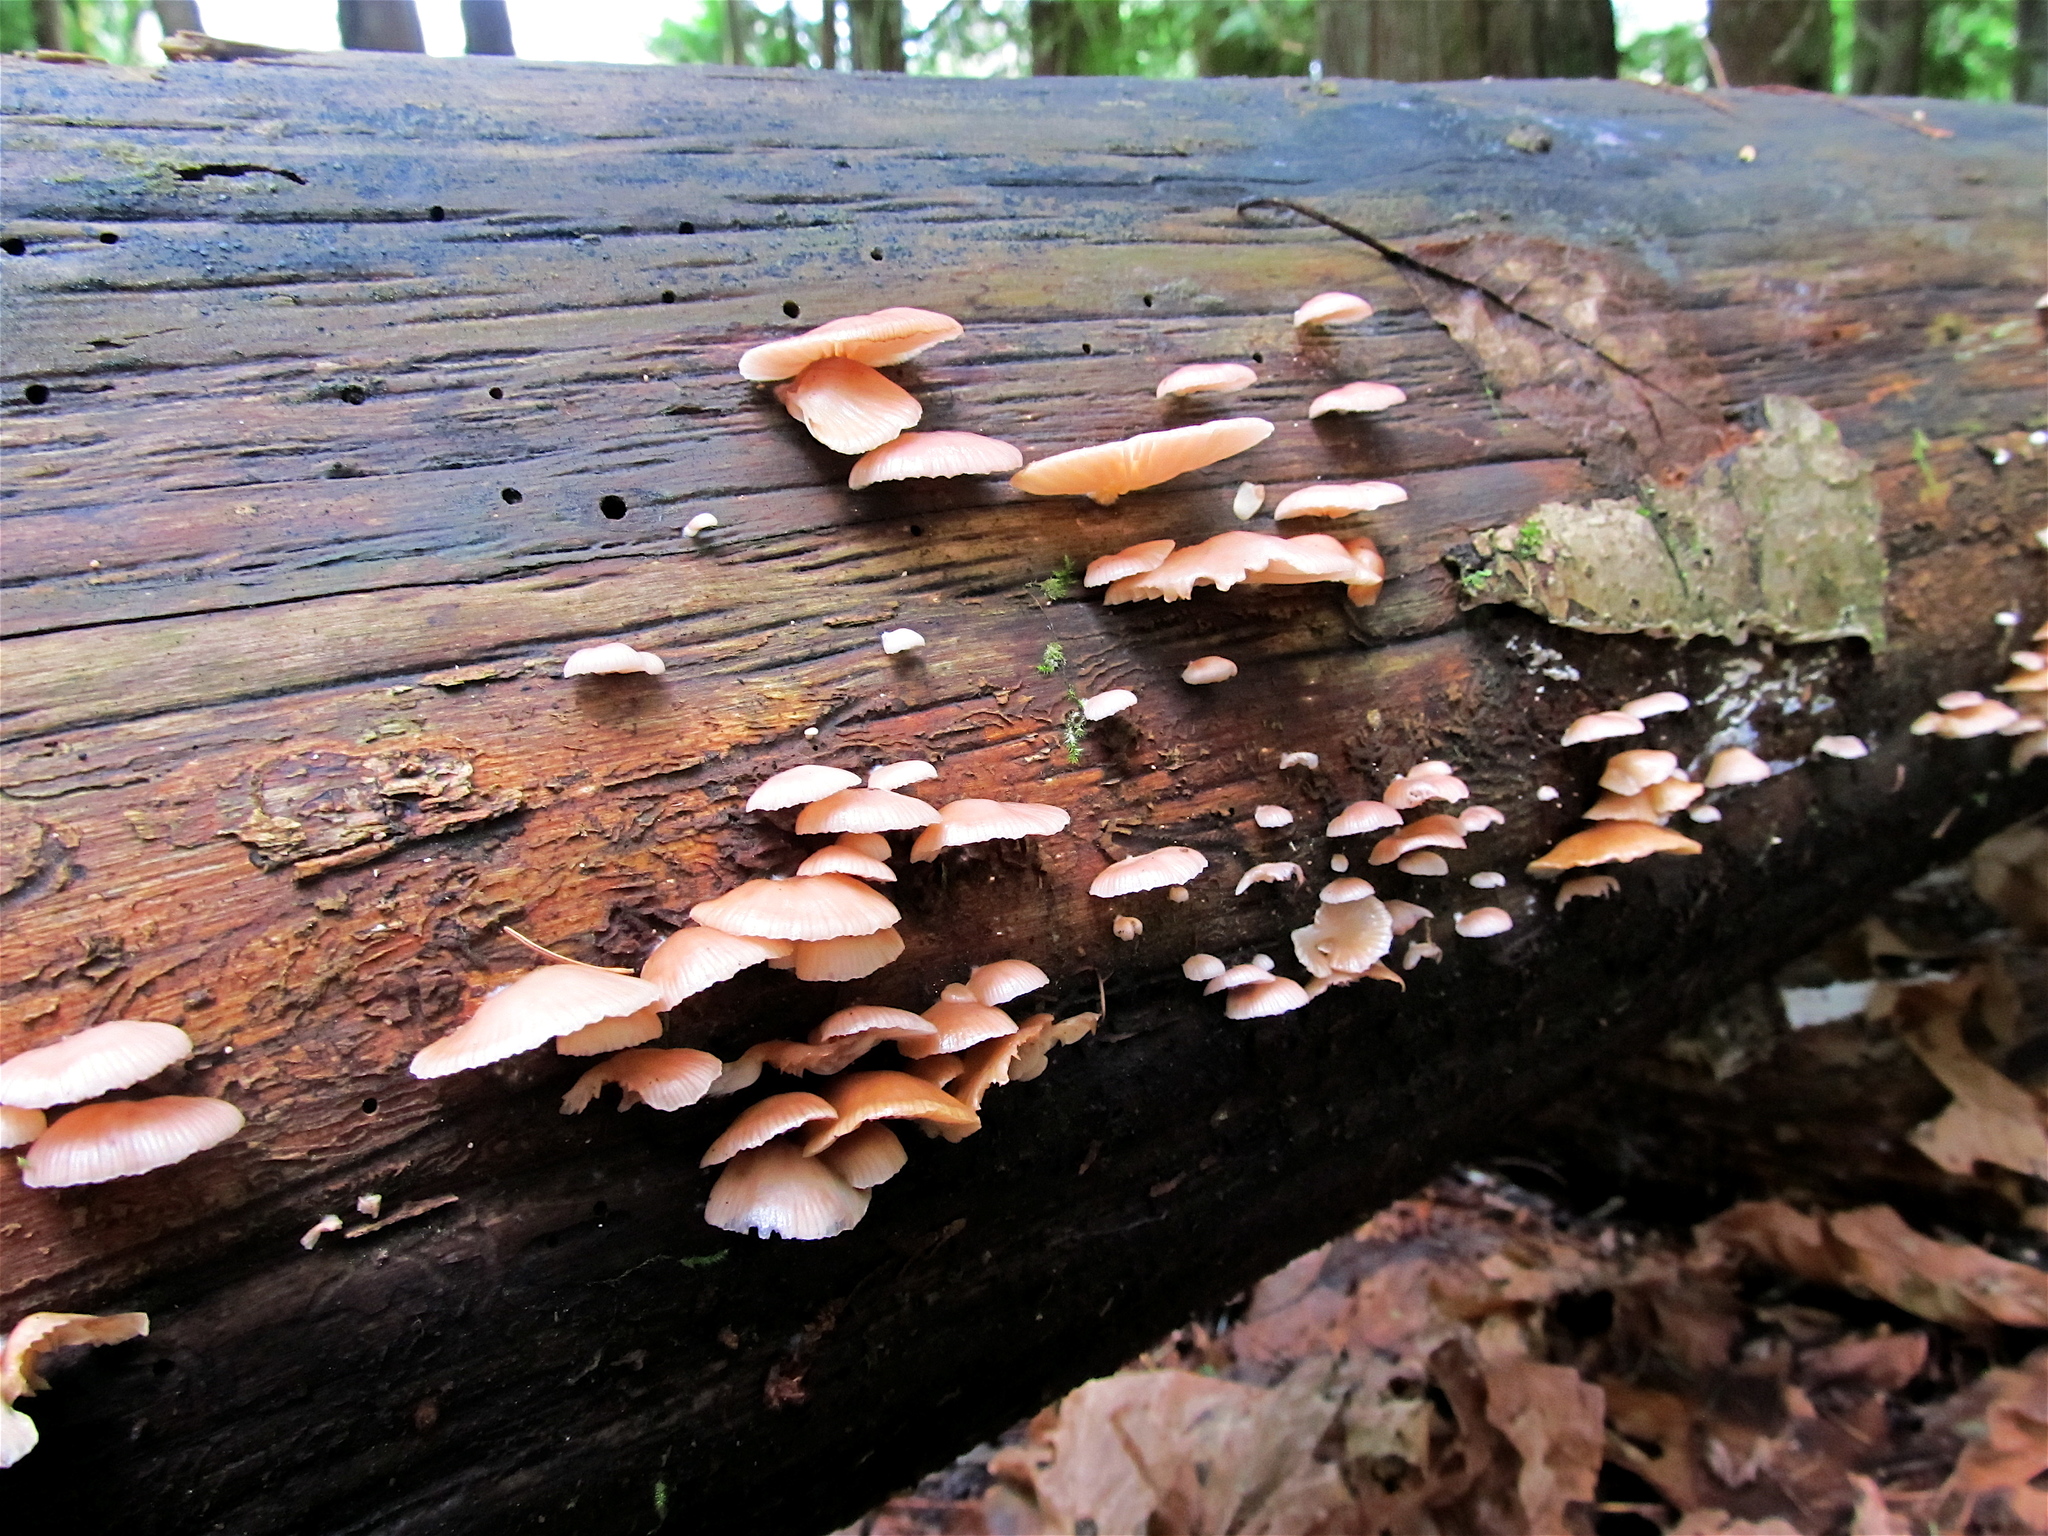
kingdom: Fungi
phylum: Basidiomycota
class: Agaricomycetes
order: Agaricales
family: Mycenaceae
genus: Panellus
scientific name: Panellus longinquus
